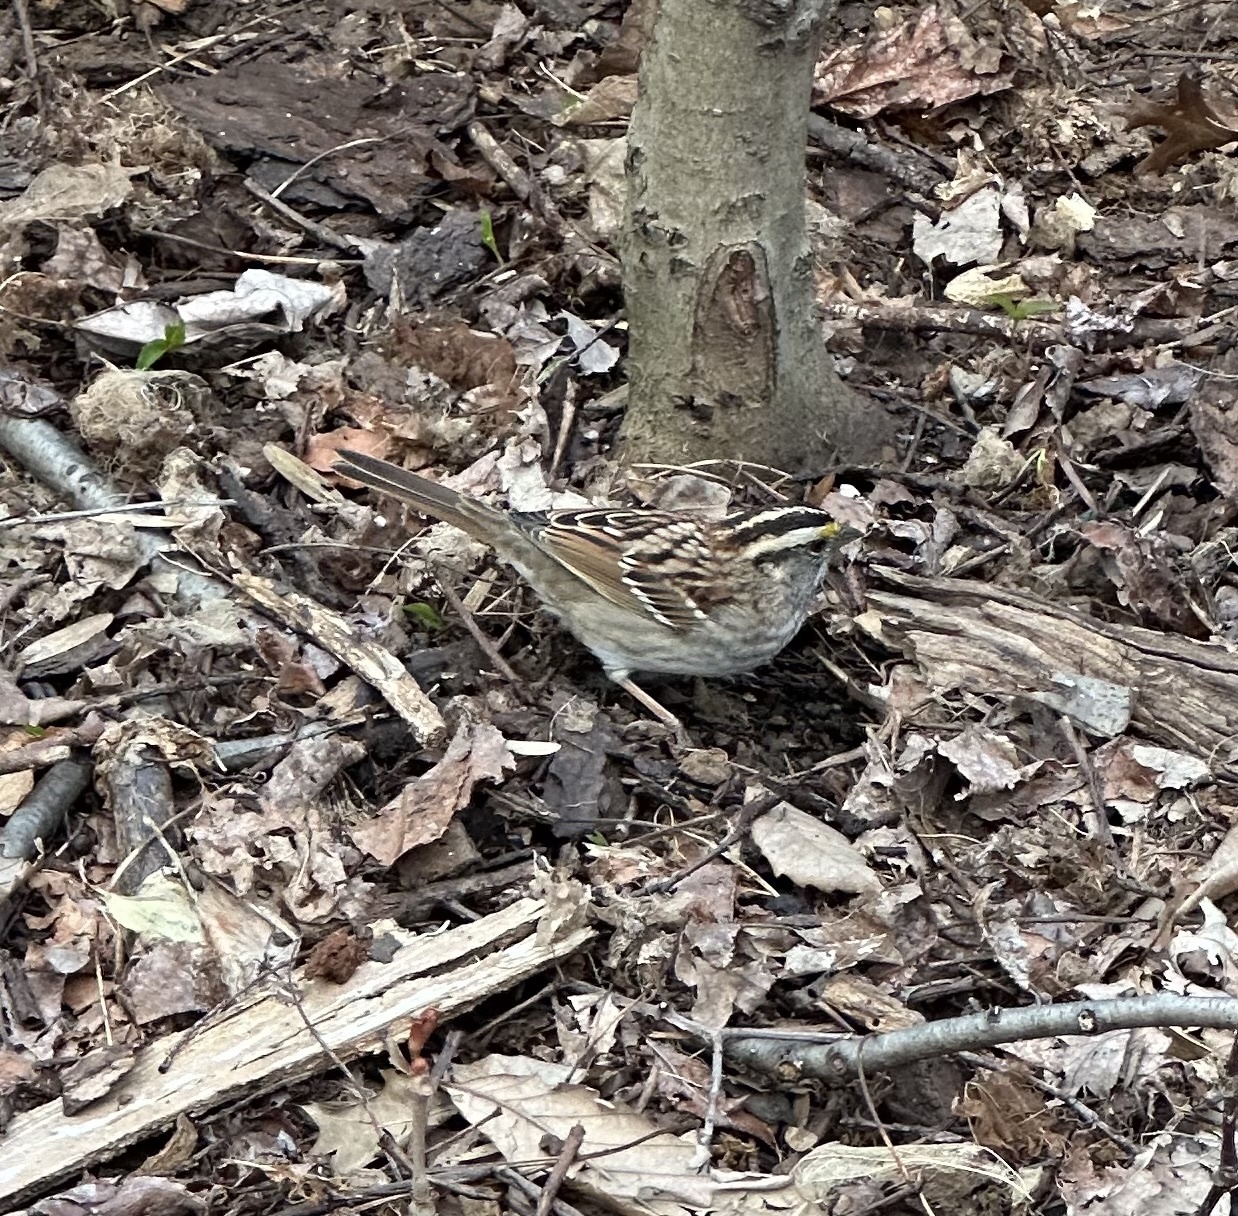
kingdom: Animalia
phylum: Chordata
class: Aves
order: Passeriformes
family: Passerellidae
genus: Zonotrichia
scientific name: Zonotrichia albicollis
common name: White-throated sparrow
